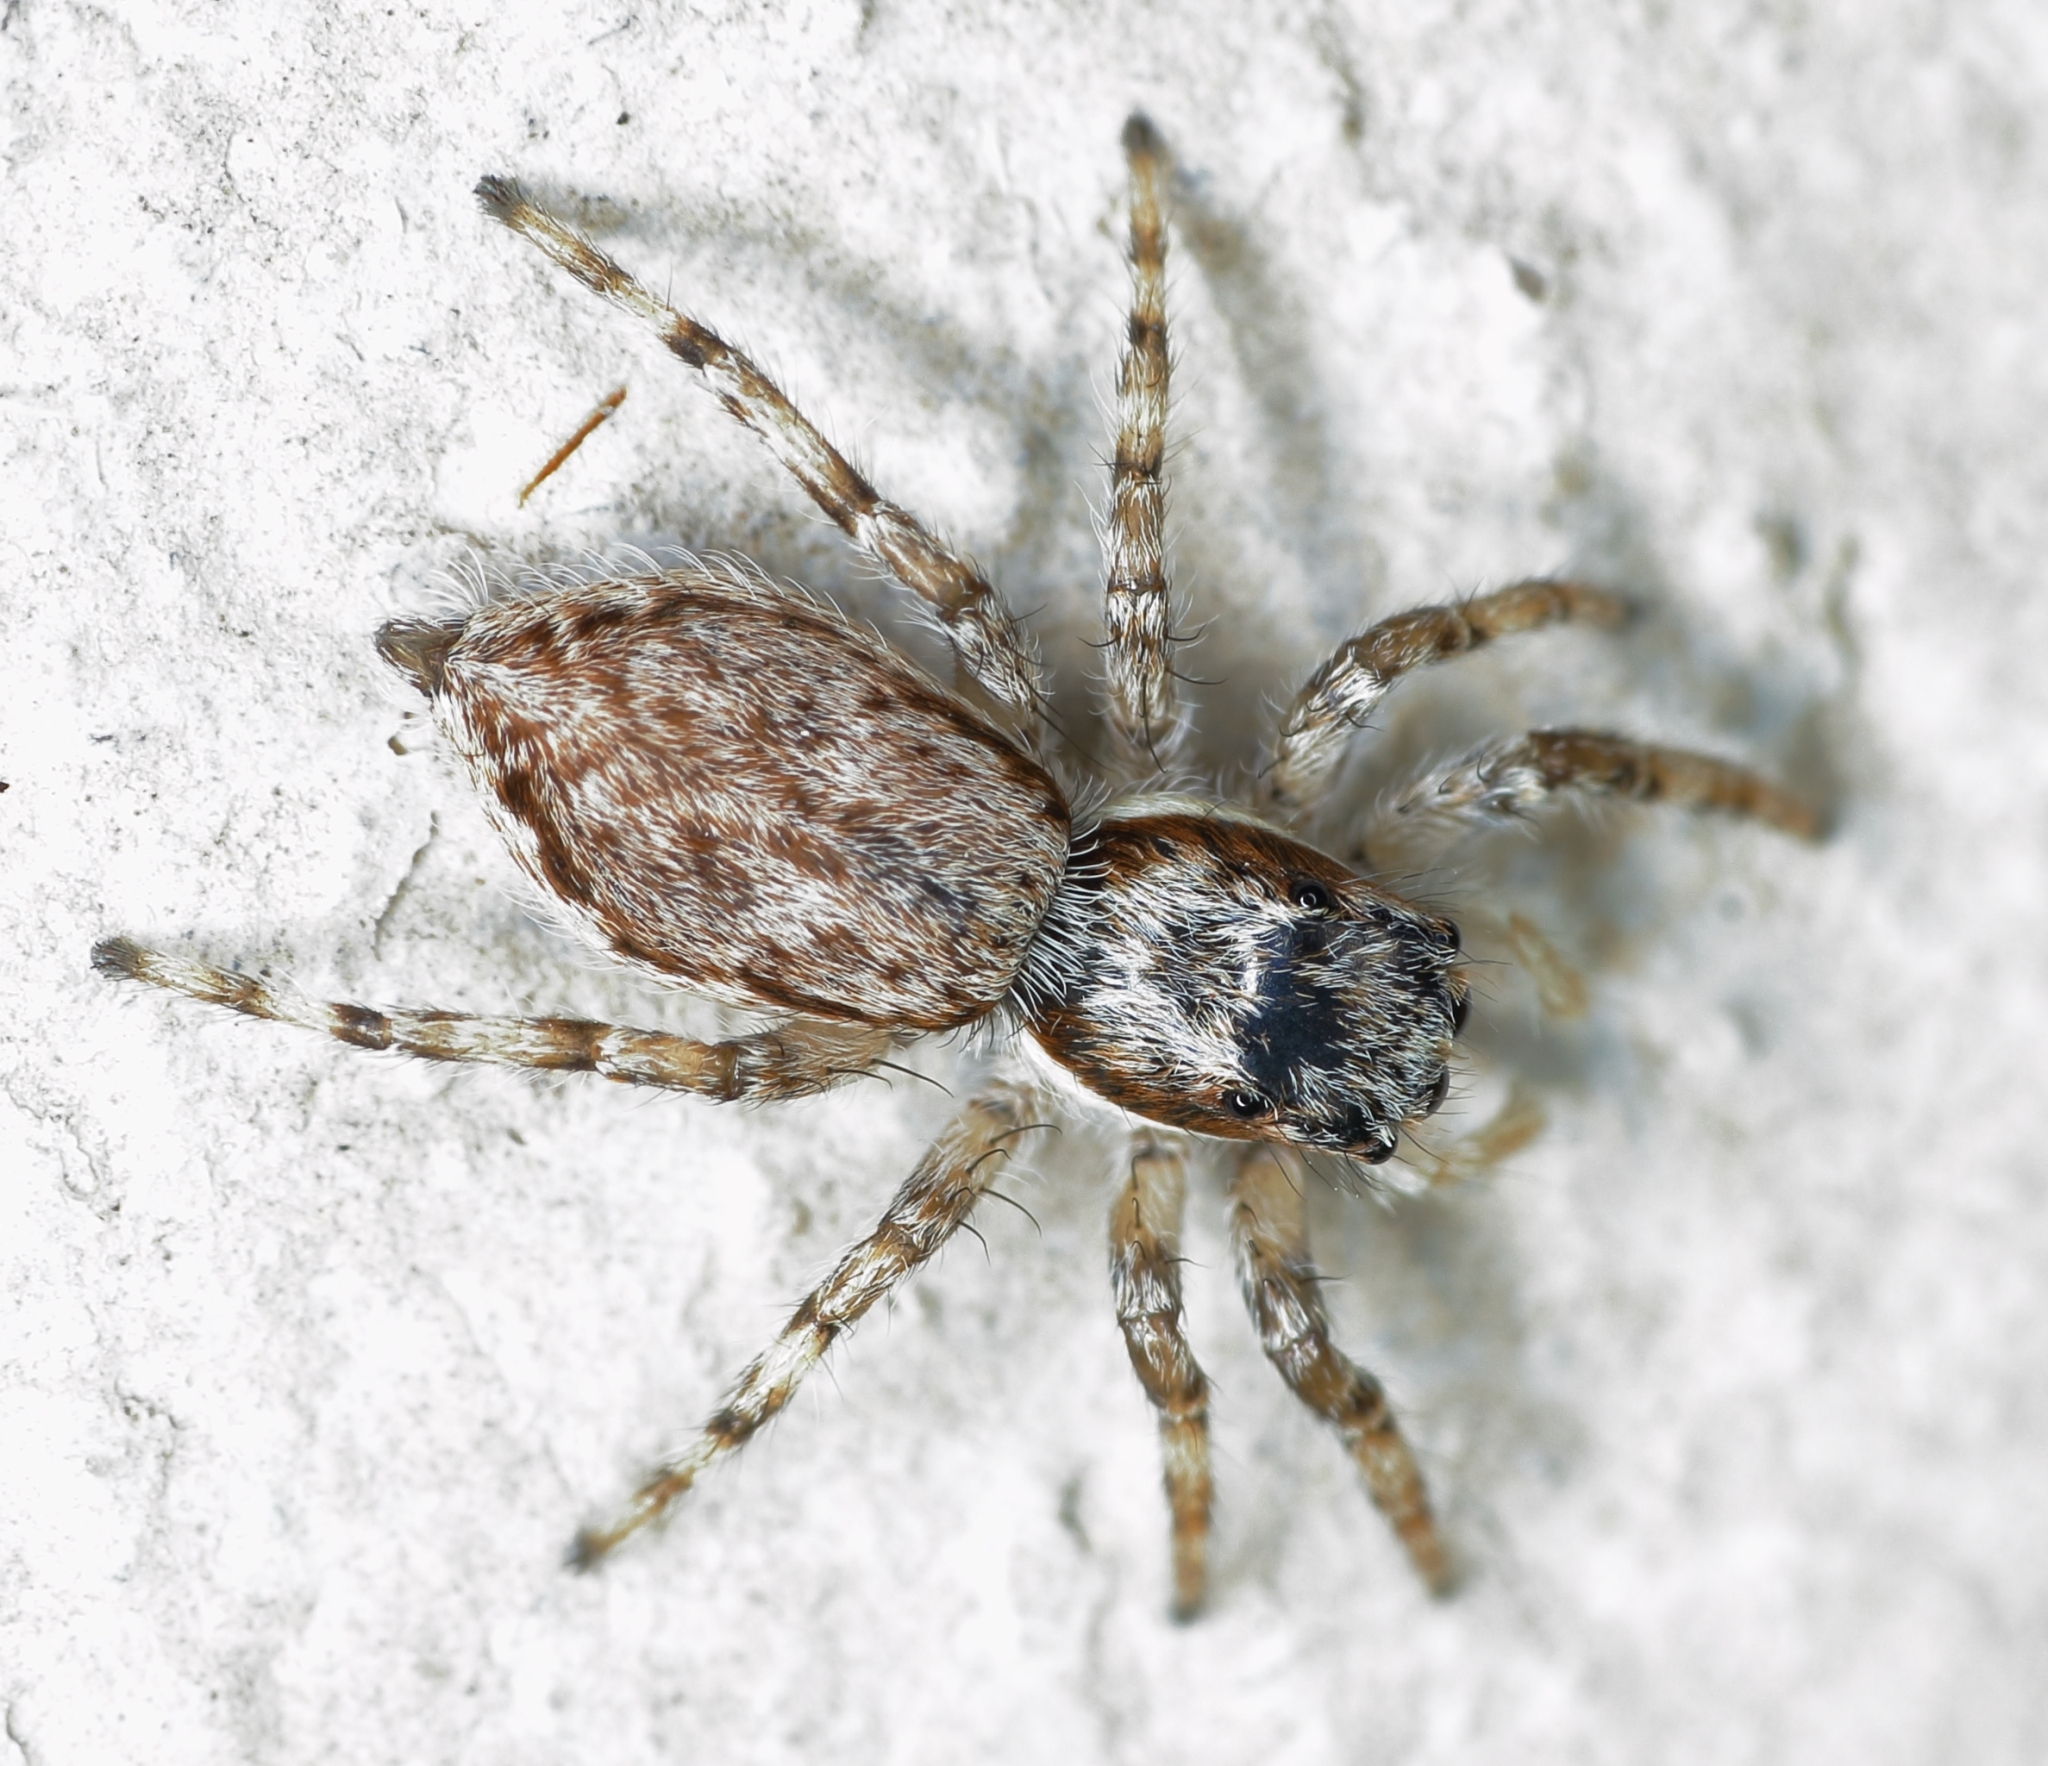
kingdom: Animalia
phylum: Arthropoda
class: Arachnida
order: Araneae
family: Salticidae
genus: Menemerus
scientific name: Menemerus bivittatus
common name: Gray wall jumper
